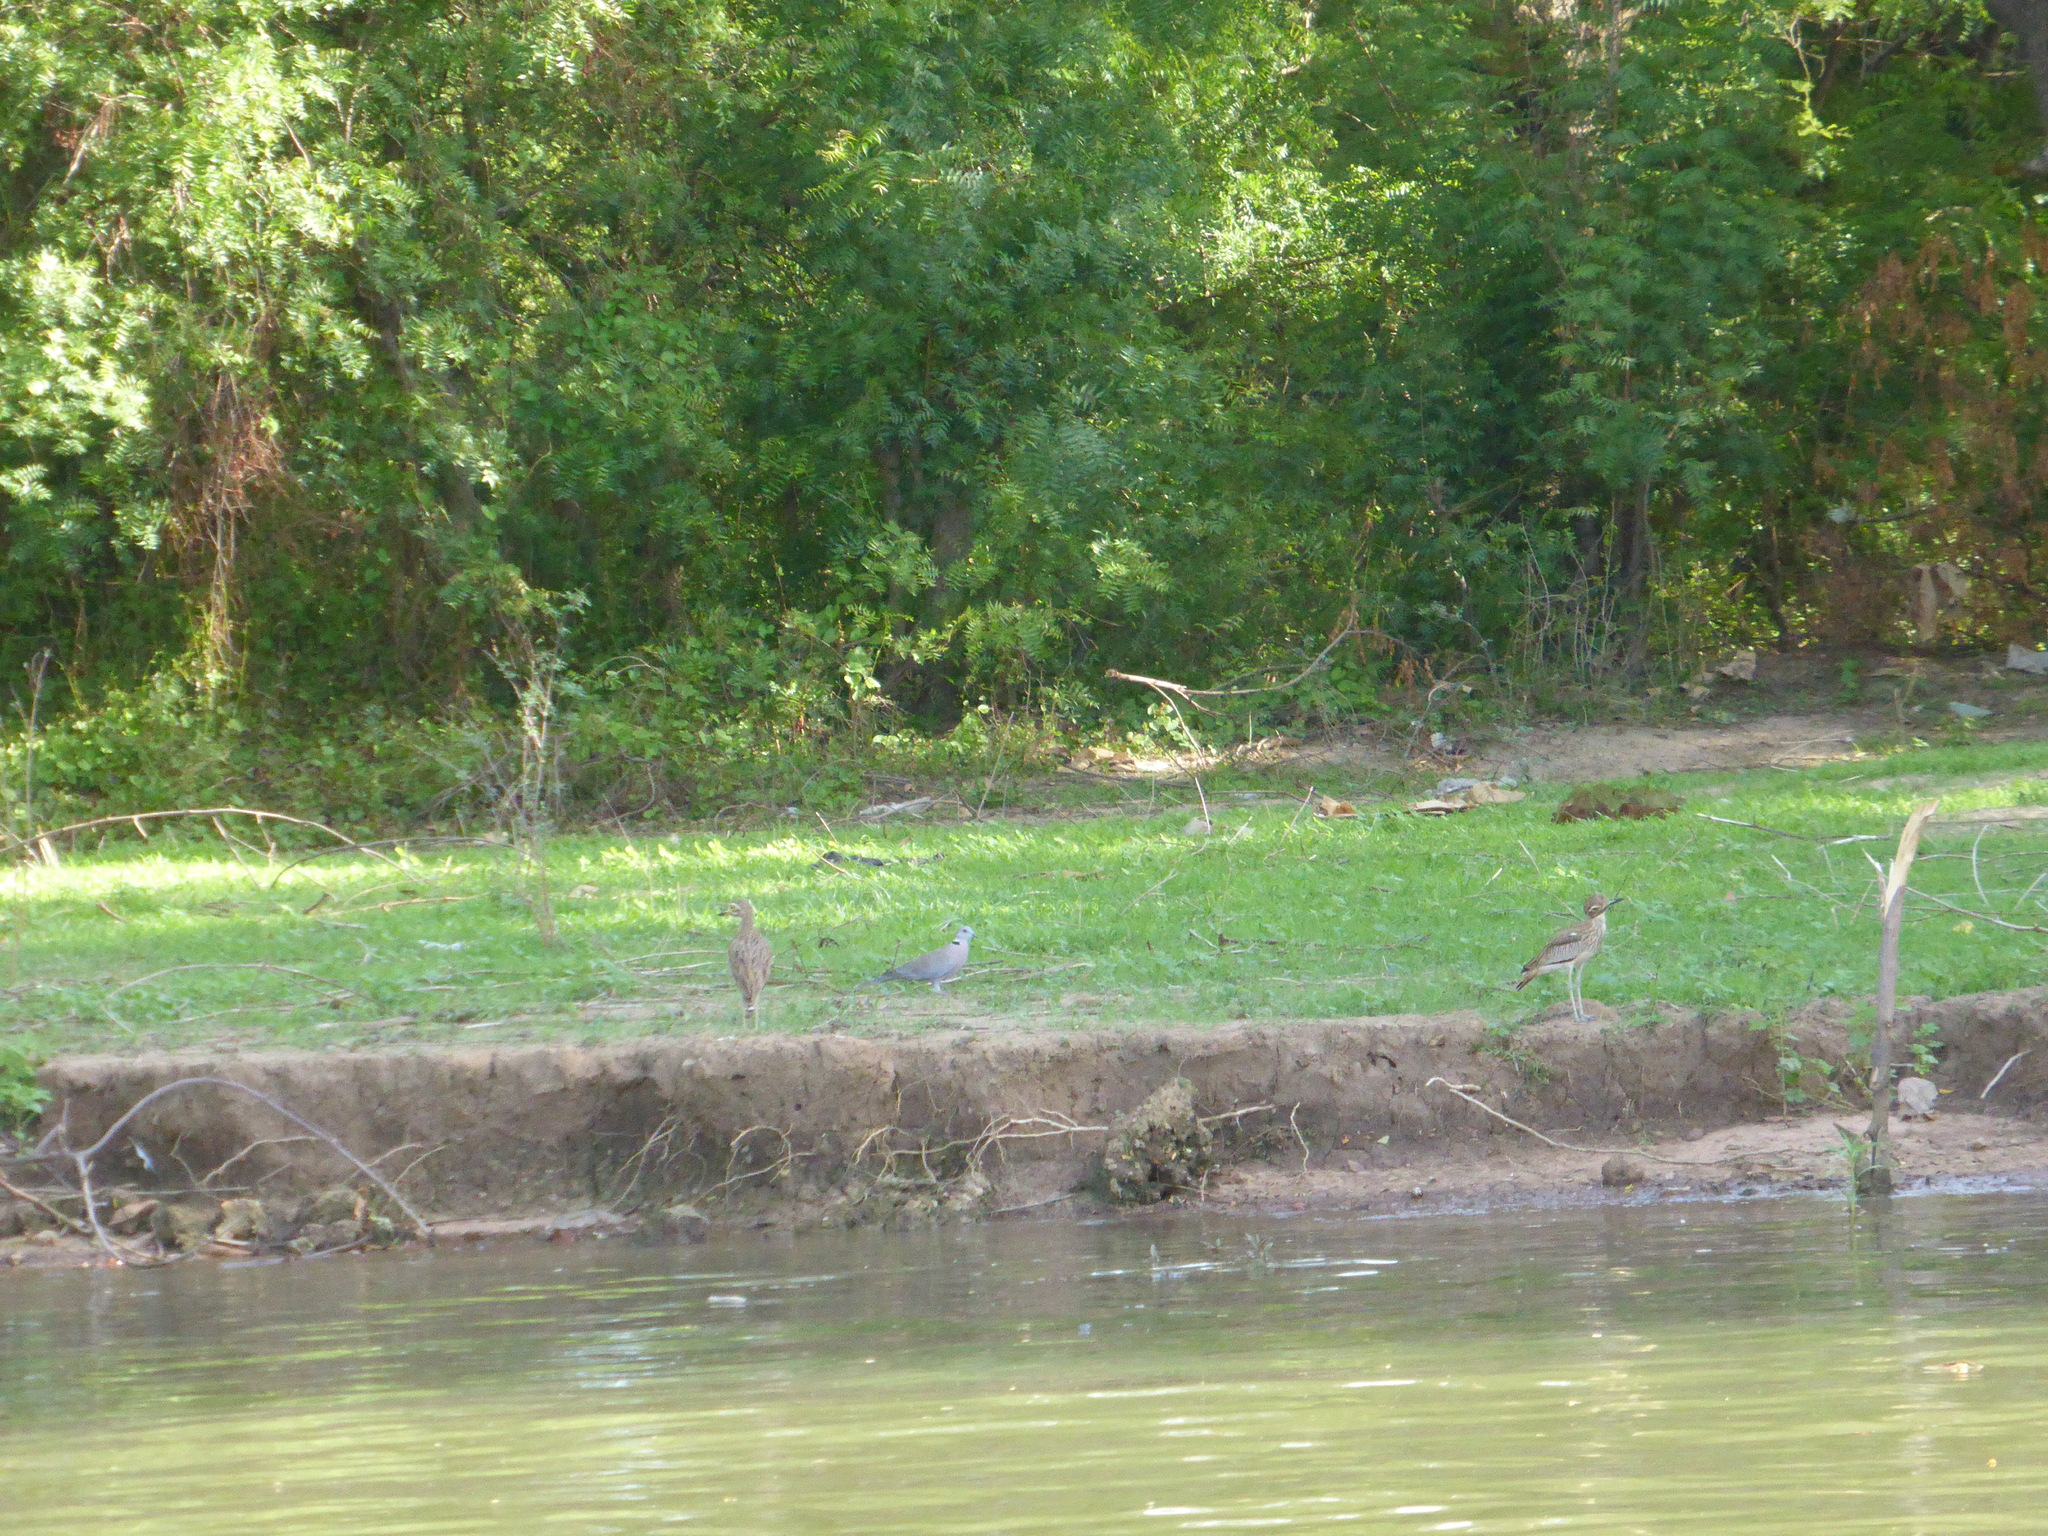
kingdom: Animalia
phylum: Chordata
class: Aves
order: Charadriiformes
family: Burhinidae
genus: Burhinus
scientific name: Burhinus senegalensis
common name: Senegal thick-knee
